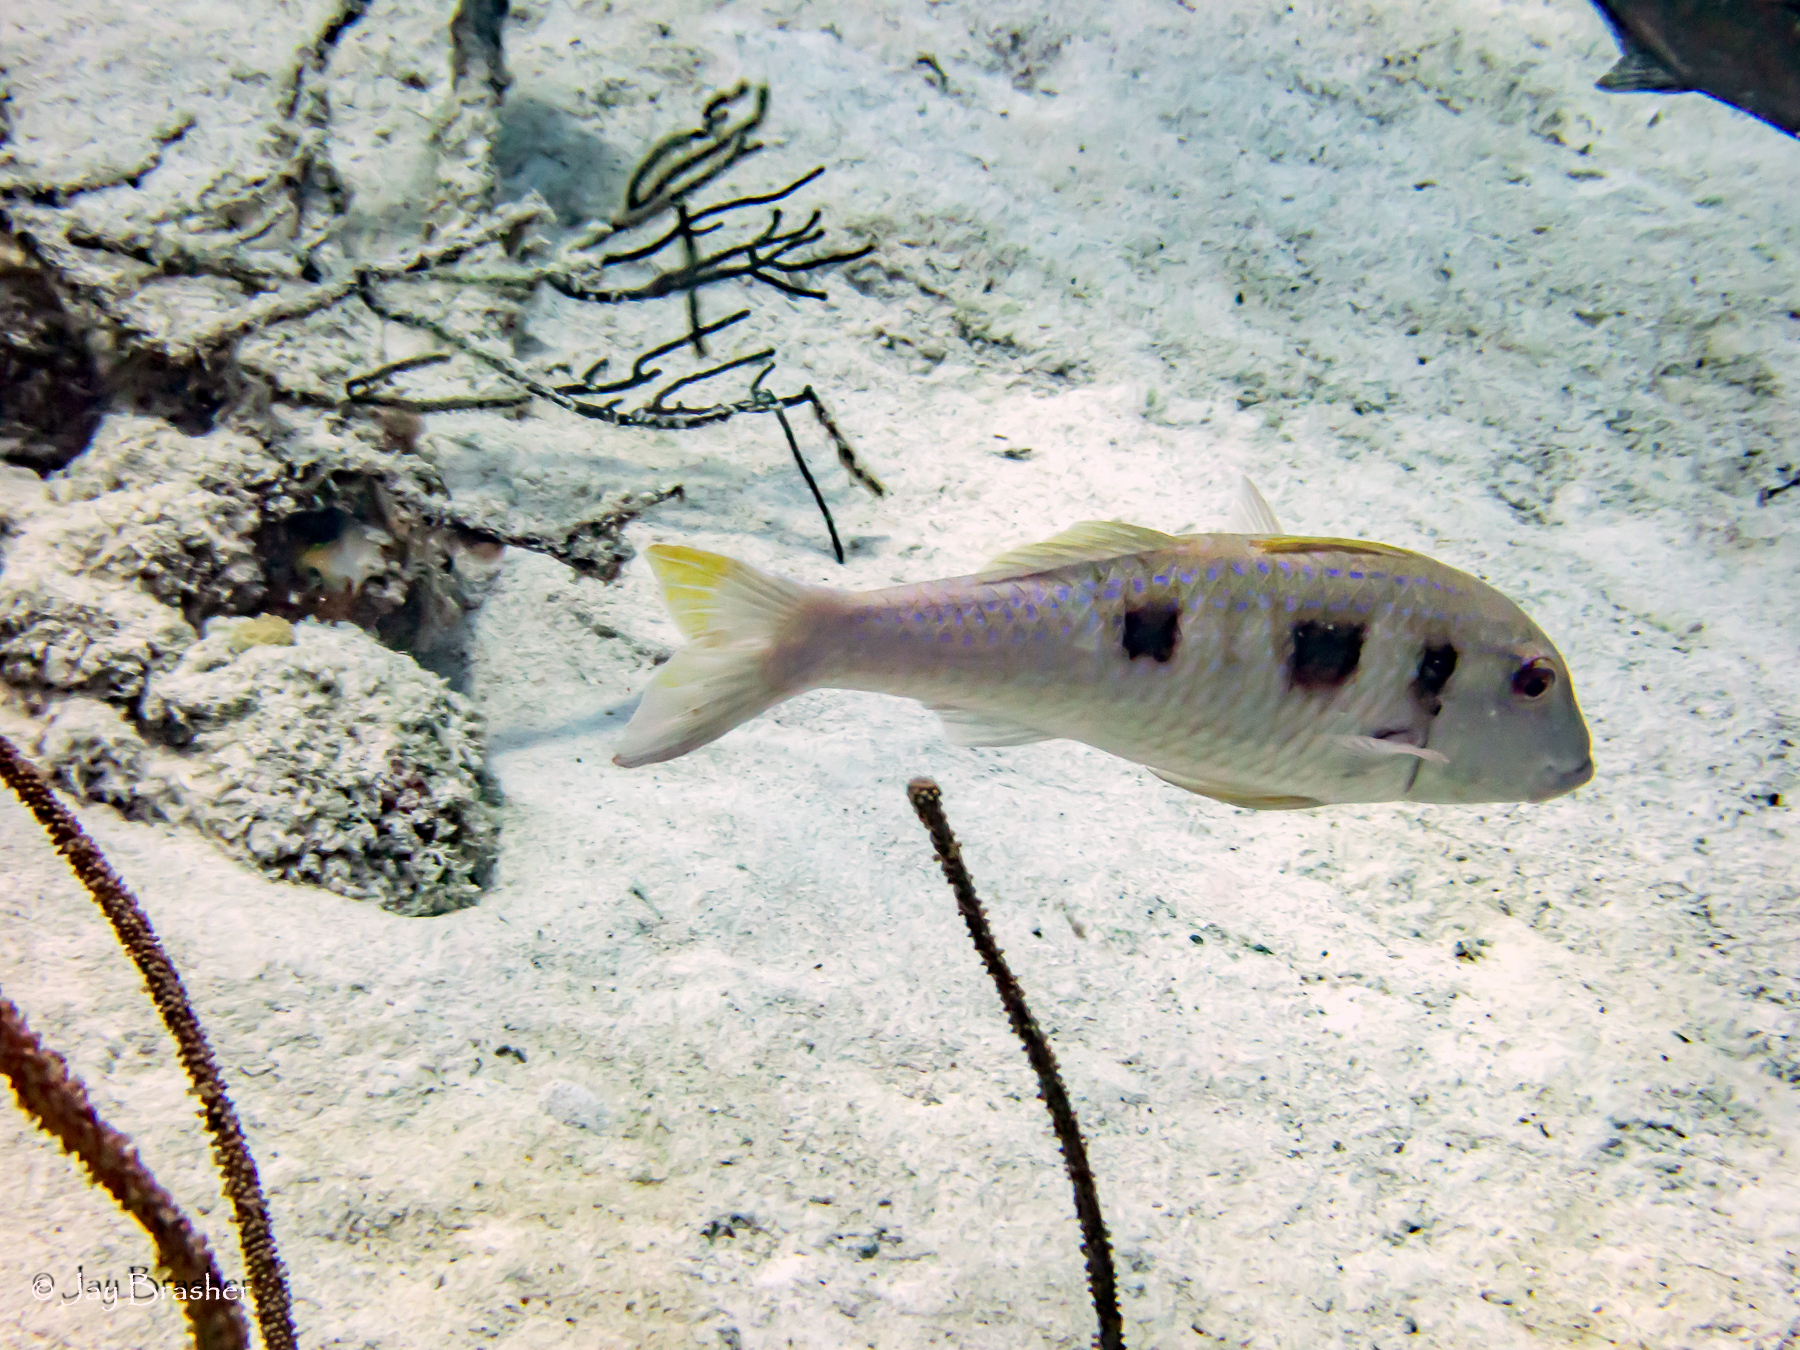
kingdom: Animalia
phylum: Chordata
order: Perciformes
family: Mullidae
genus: Pseudupeneus
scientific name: Pseudupeneus maculatus
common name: Spotted goatfish
